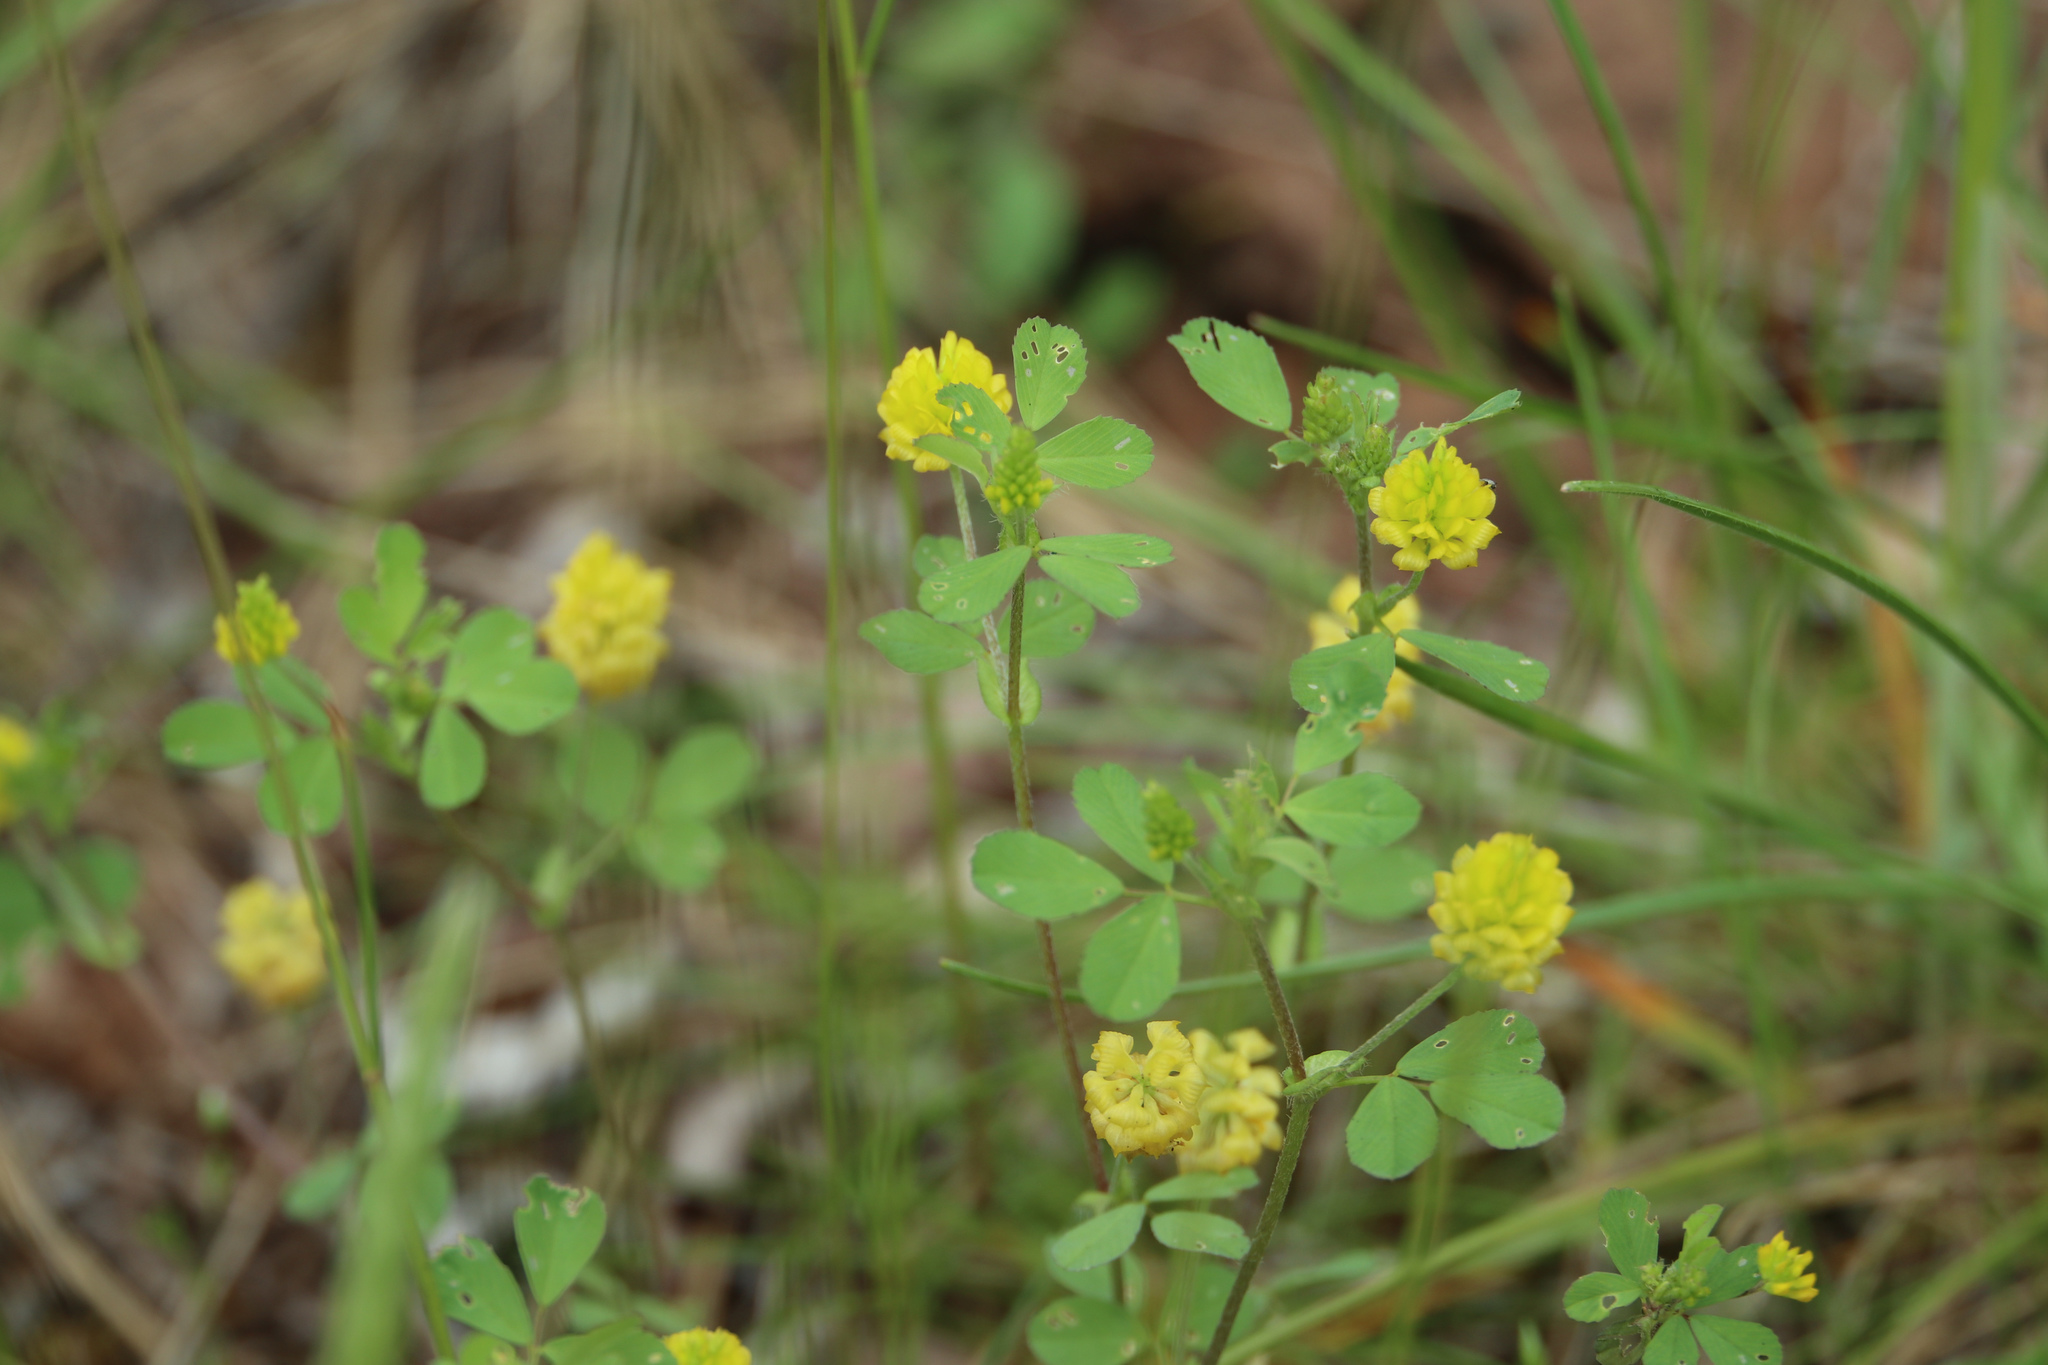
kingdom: Plantae
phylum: Tracheophyta
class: Magnoliopsida
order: Fabales
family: Fabaceae
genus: Trifolium
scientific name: Trifolium campestre
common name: Field clover
